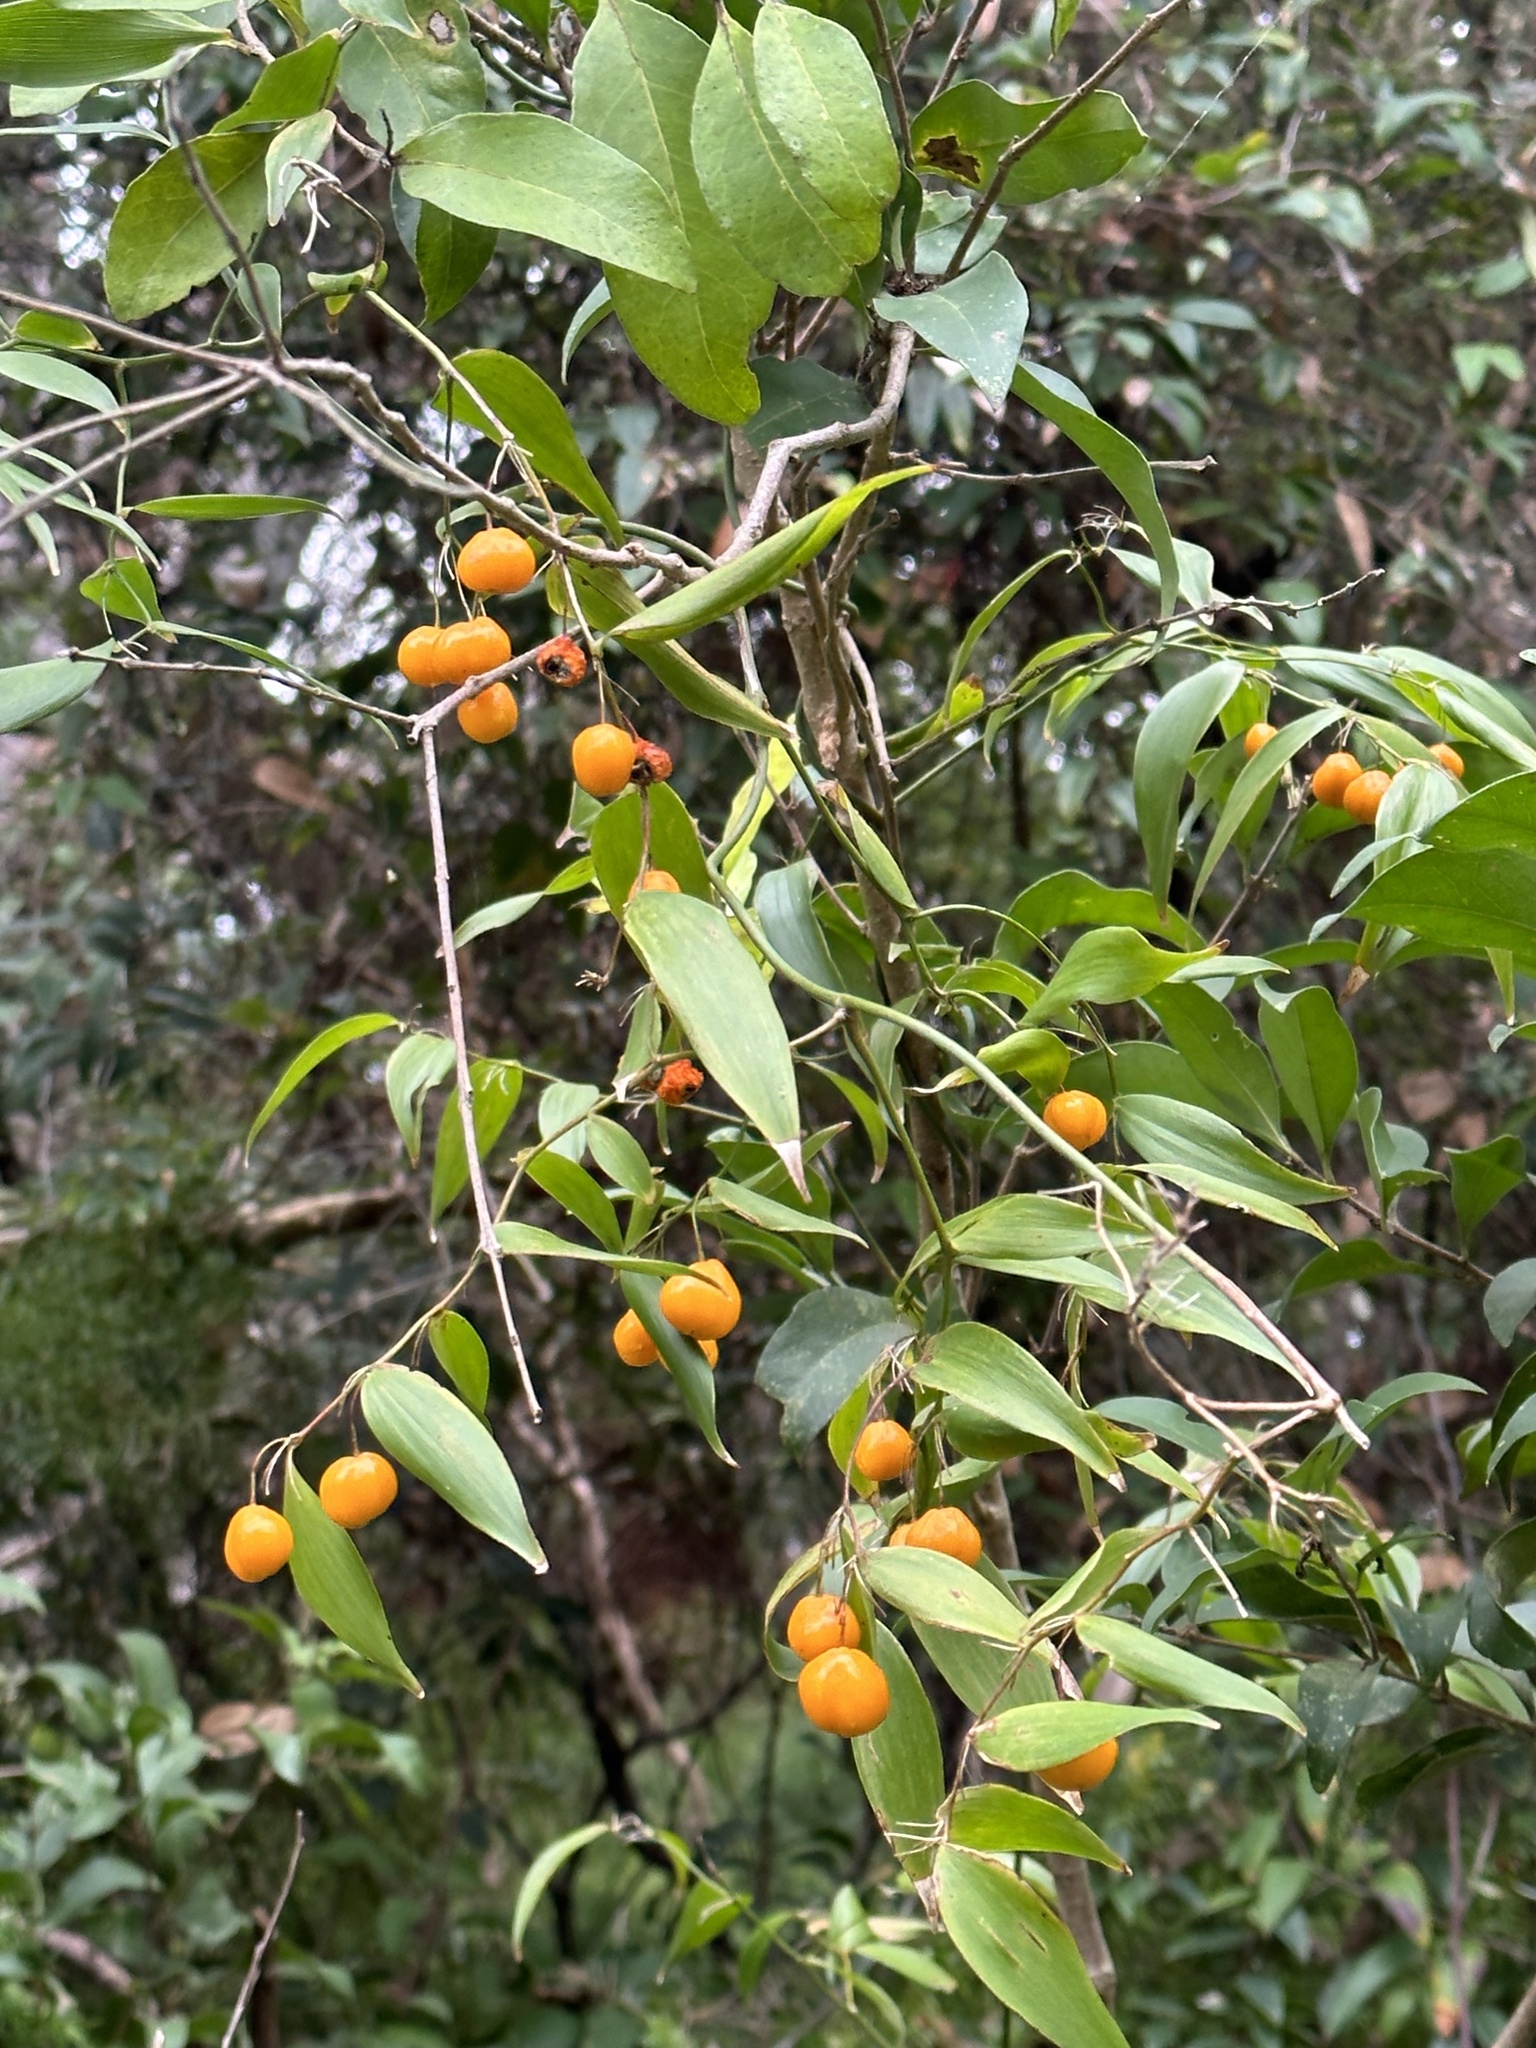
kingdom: Plantae
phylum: Tracheophyta
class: Liliopsida
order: Asparagales
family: Asparagaceae
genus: Eustrephus
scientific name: Eustrephus latifolius
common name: Orangevine
